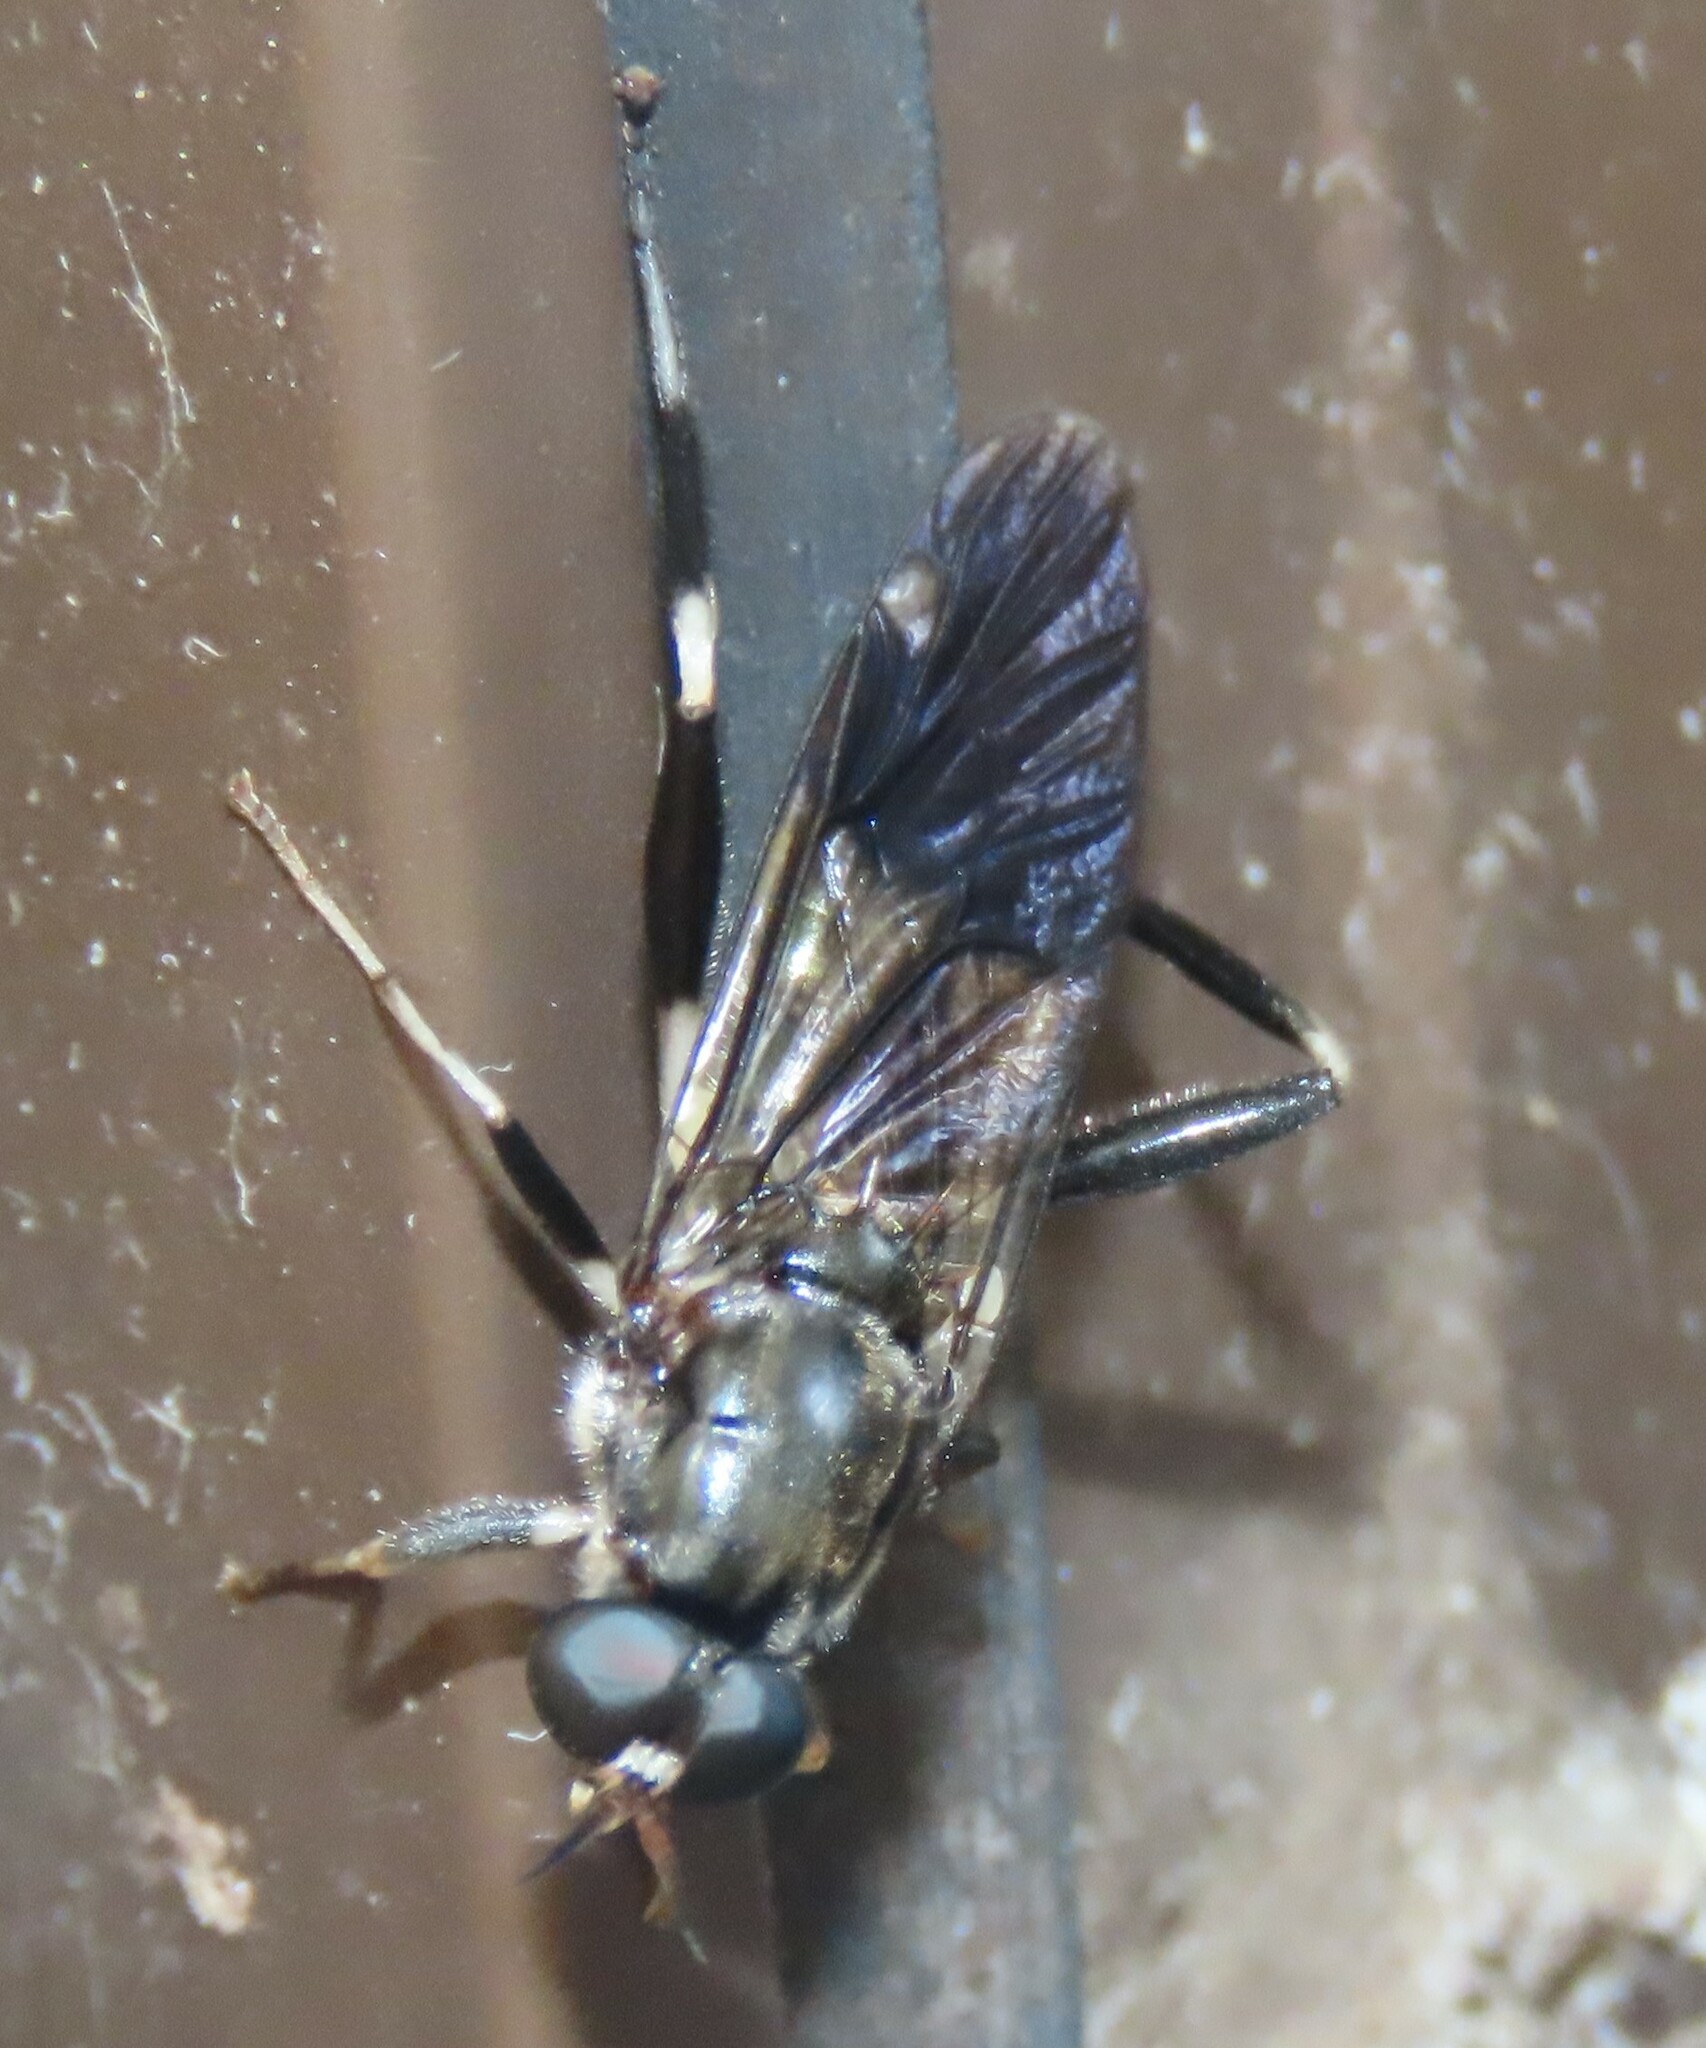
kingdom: Animalia
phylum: Arthropoda
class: Insecta
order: Diptera
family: Stratiomyidae
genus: Exaireta
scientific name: Exaireta spinigera
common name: Blue soldier fly
